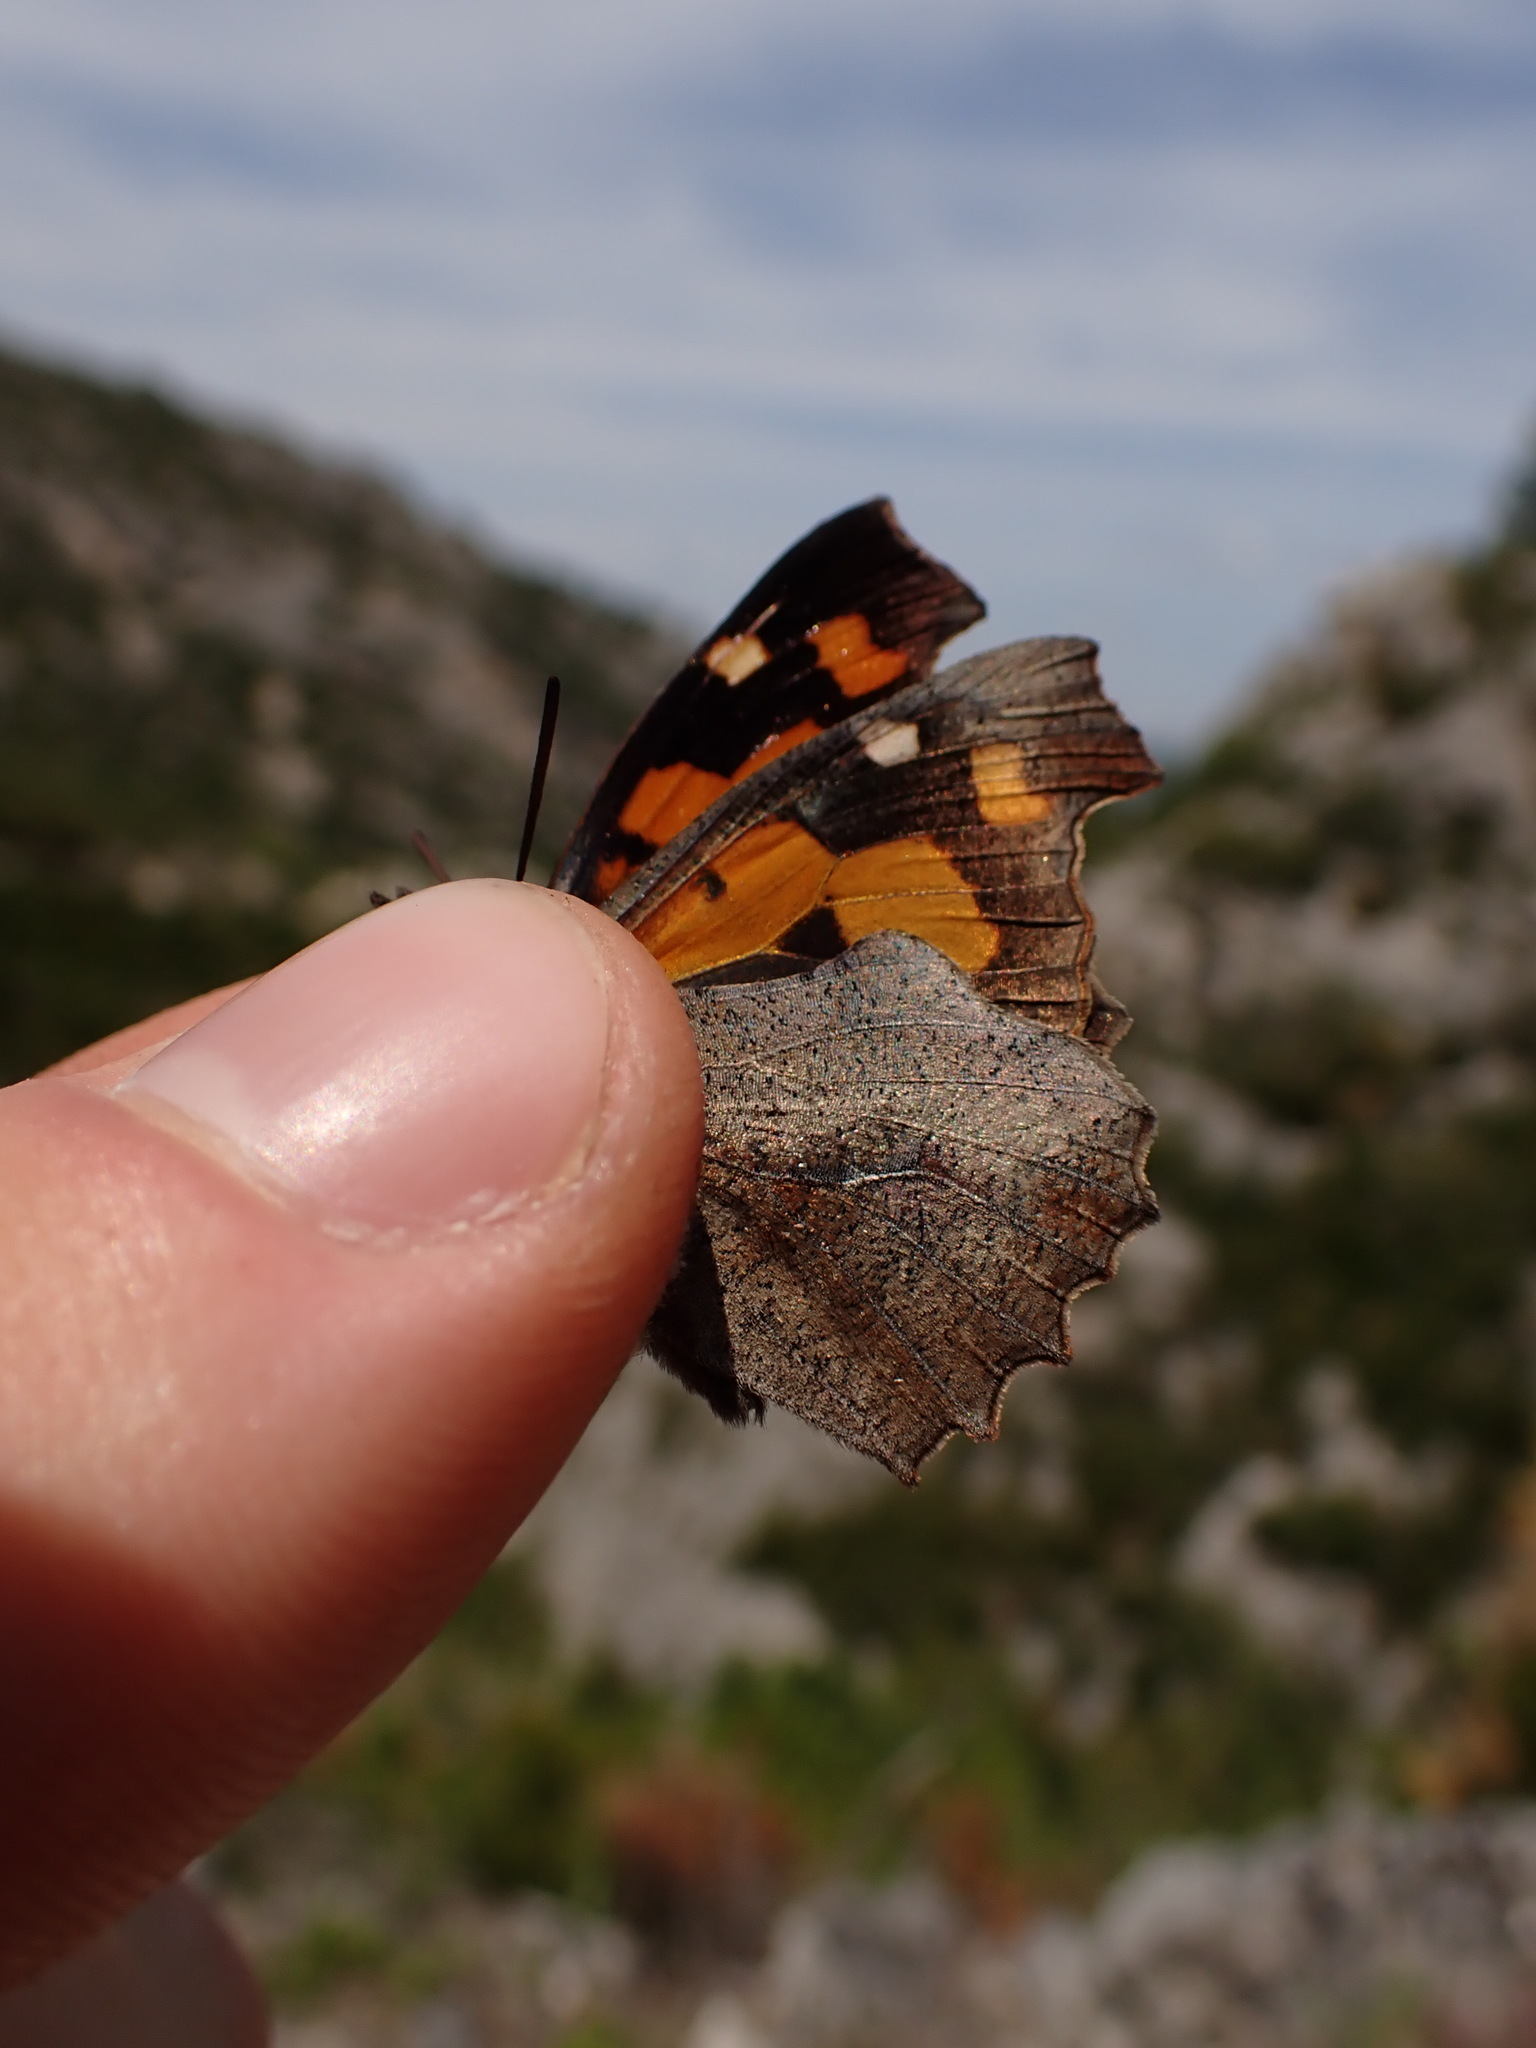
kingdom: Animalia
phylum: Arthropoda
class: Insecta
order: Lepidoptera
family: Nymphalidae
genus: Libythea
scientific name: Libythea celtis
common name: Nettle-tree butterfly
